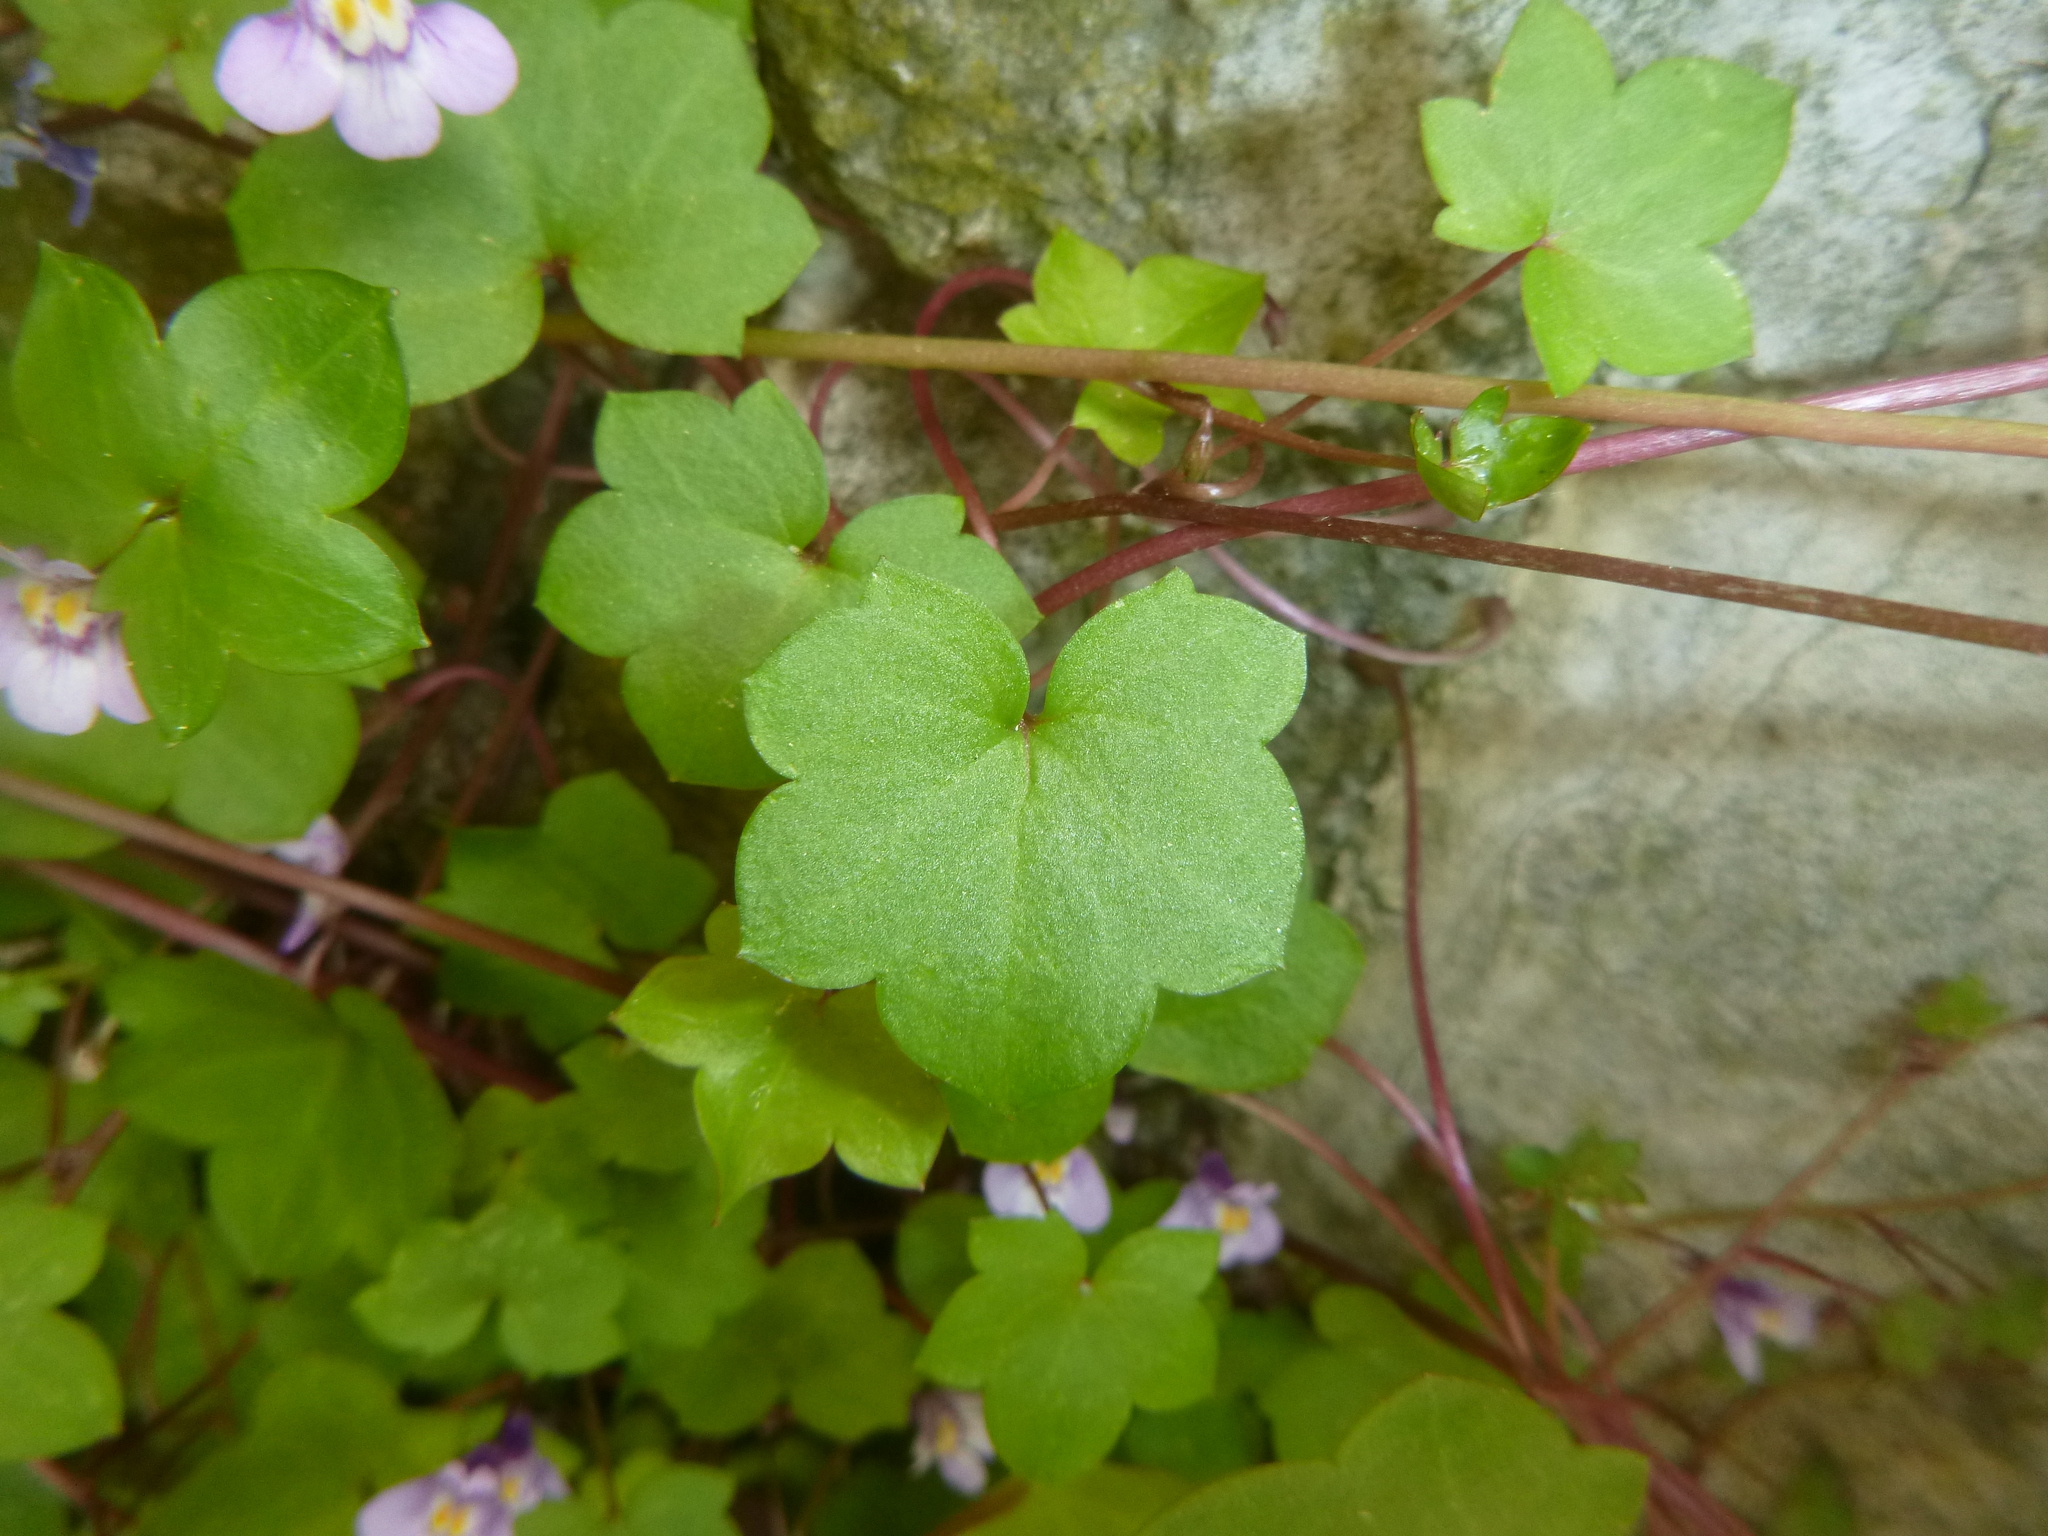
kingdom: Plantae
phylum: Tracheophyta
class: Magnoliopsida
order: Lamiales
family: Plantaginaceae
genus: Cymbalaria
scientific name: Cymbalaria muralis
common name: Ivy-leaved toadflax
